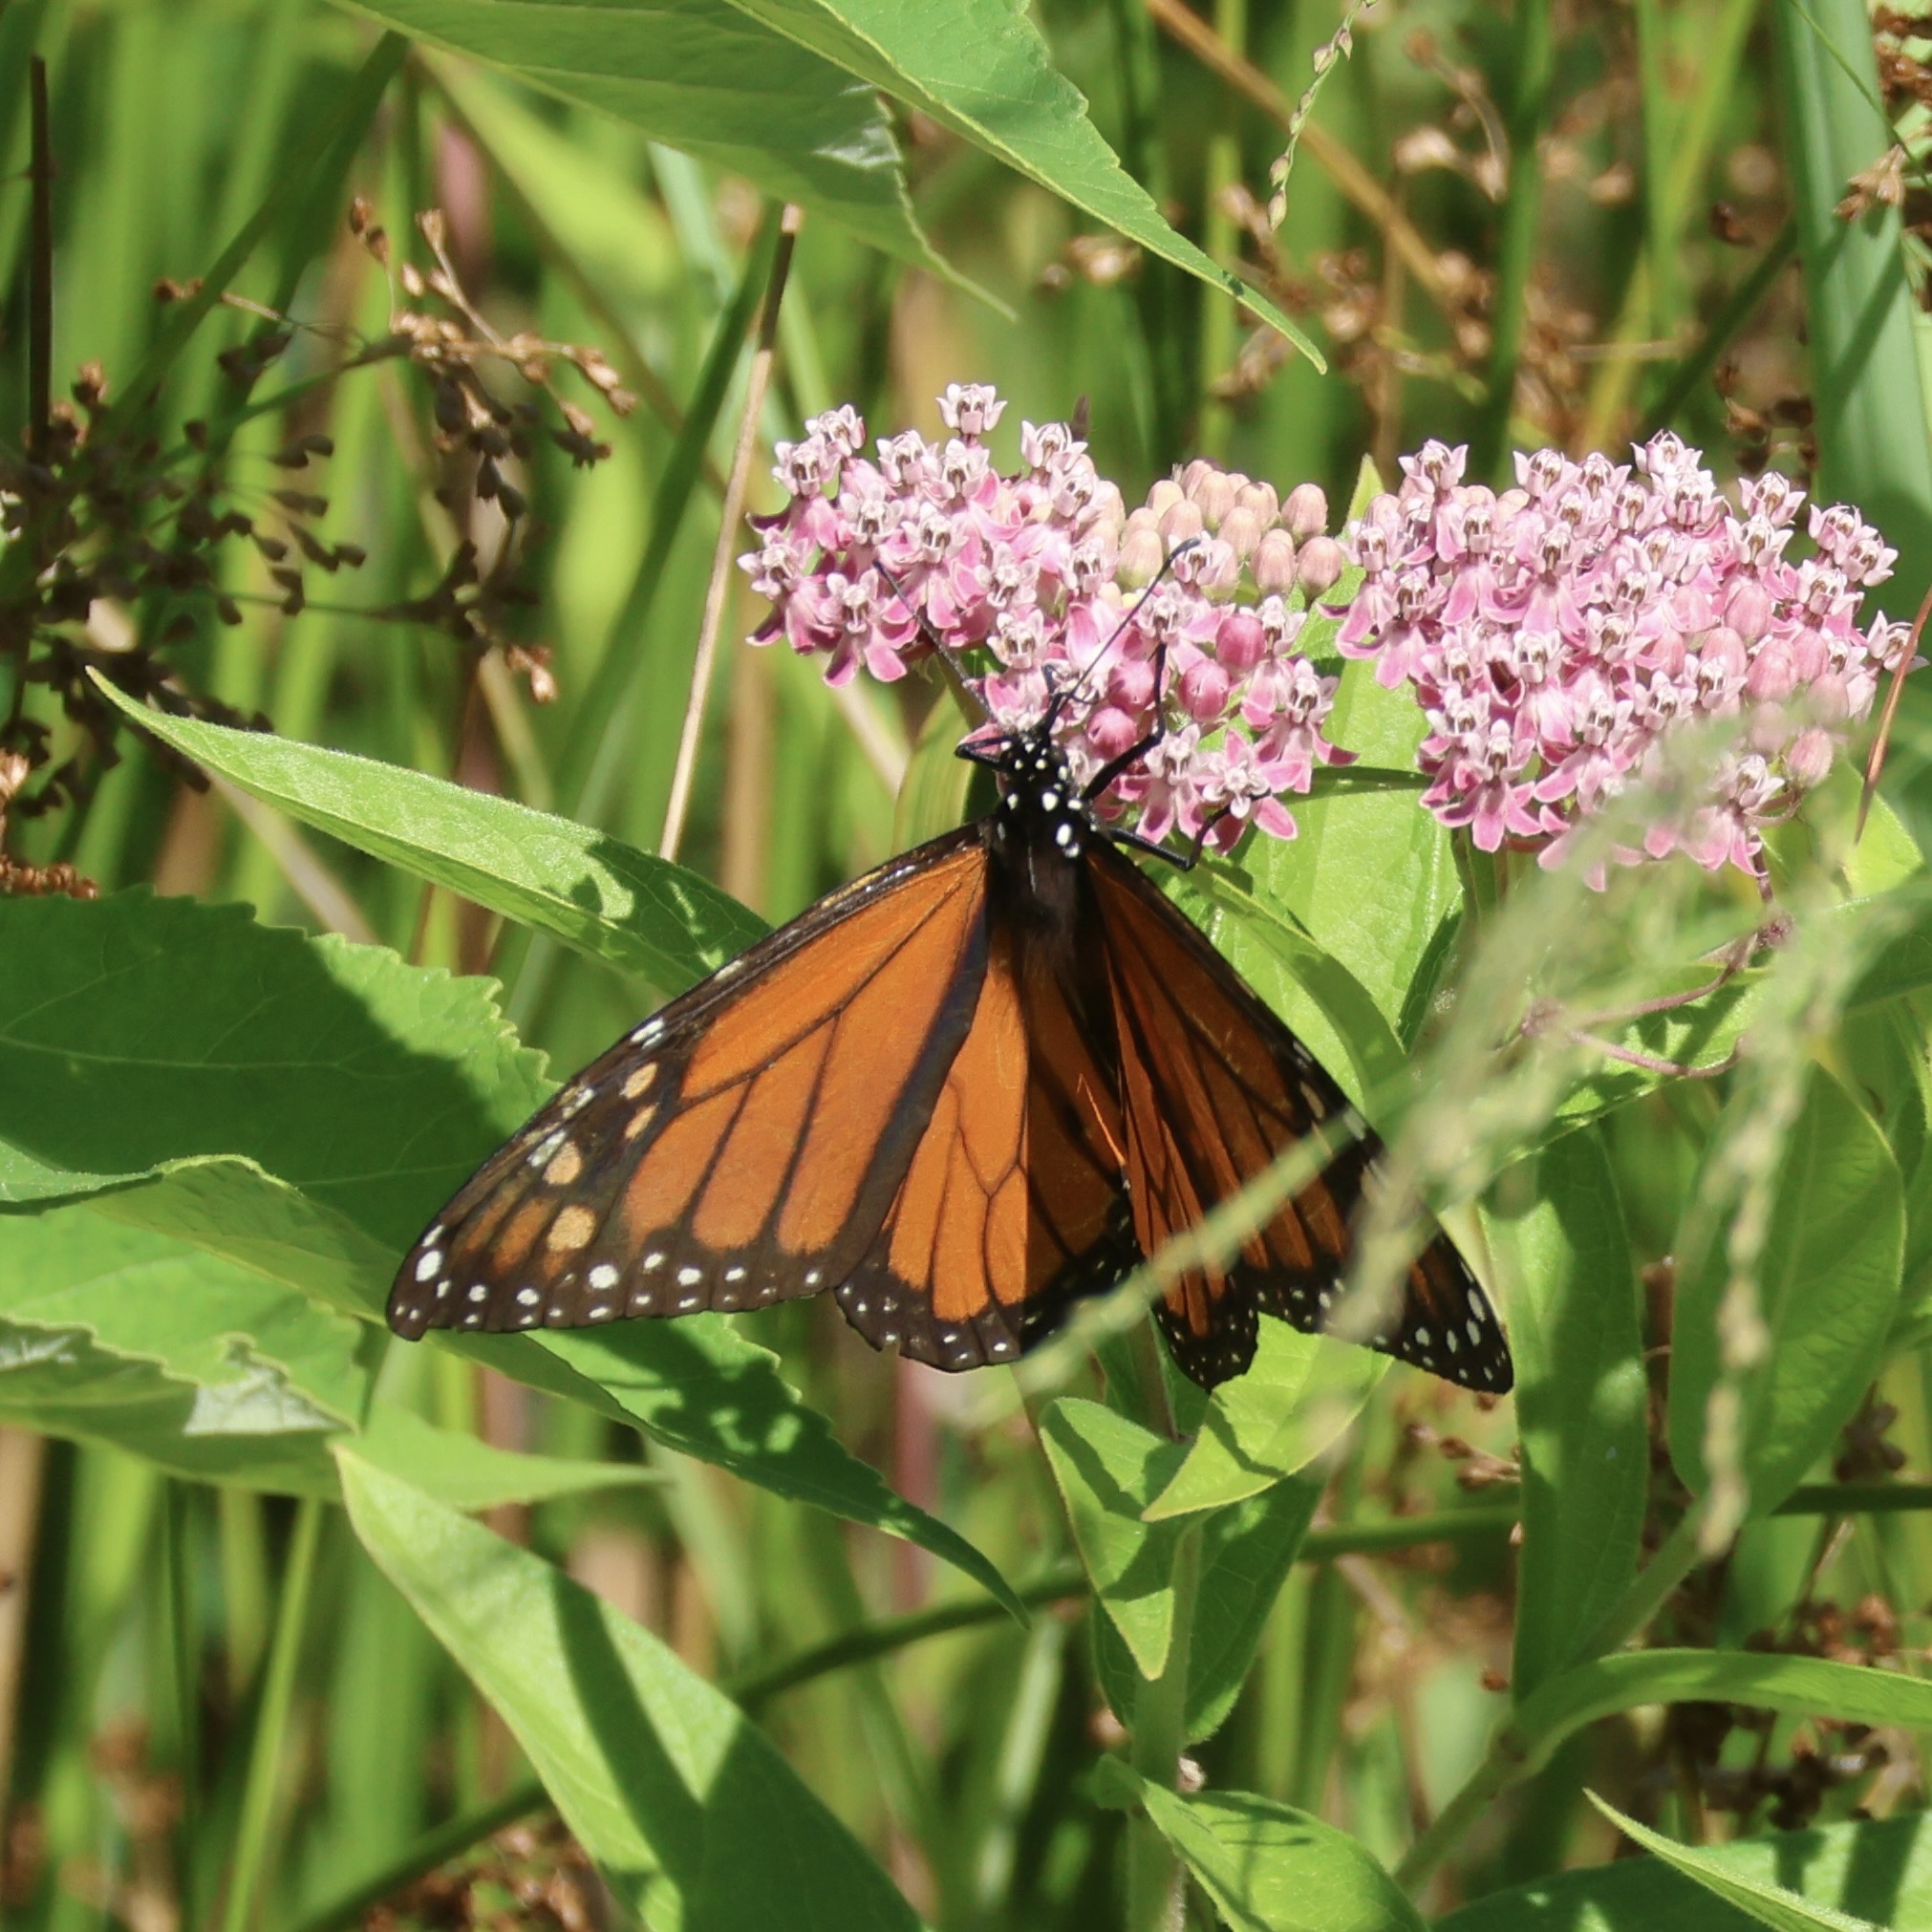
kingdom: Animalia
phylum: Arthropoda
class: Insecta
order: Lepidoptera
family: Nymphalidae
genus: Danaus
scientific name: Danaus plexippus
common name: Monarch
